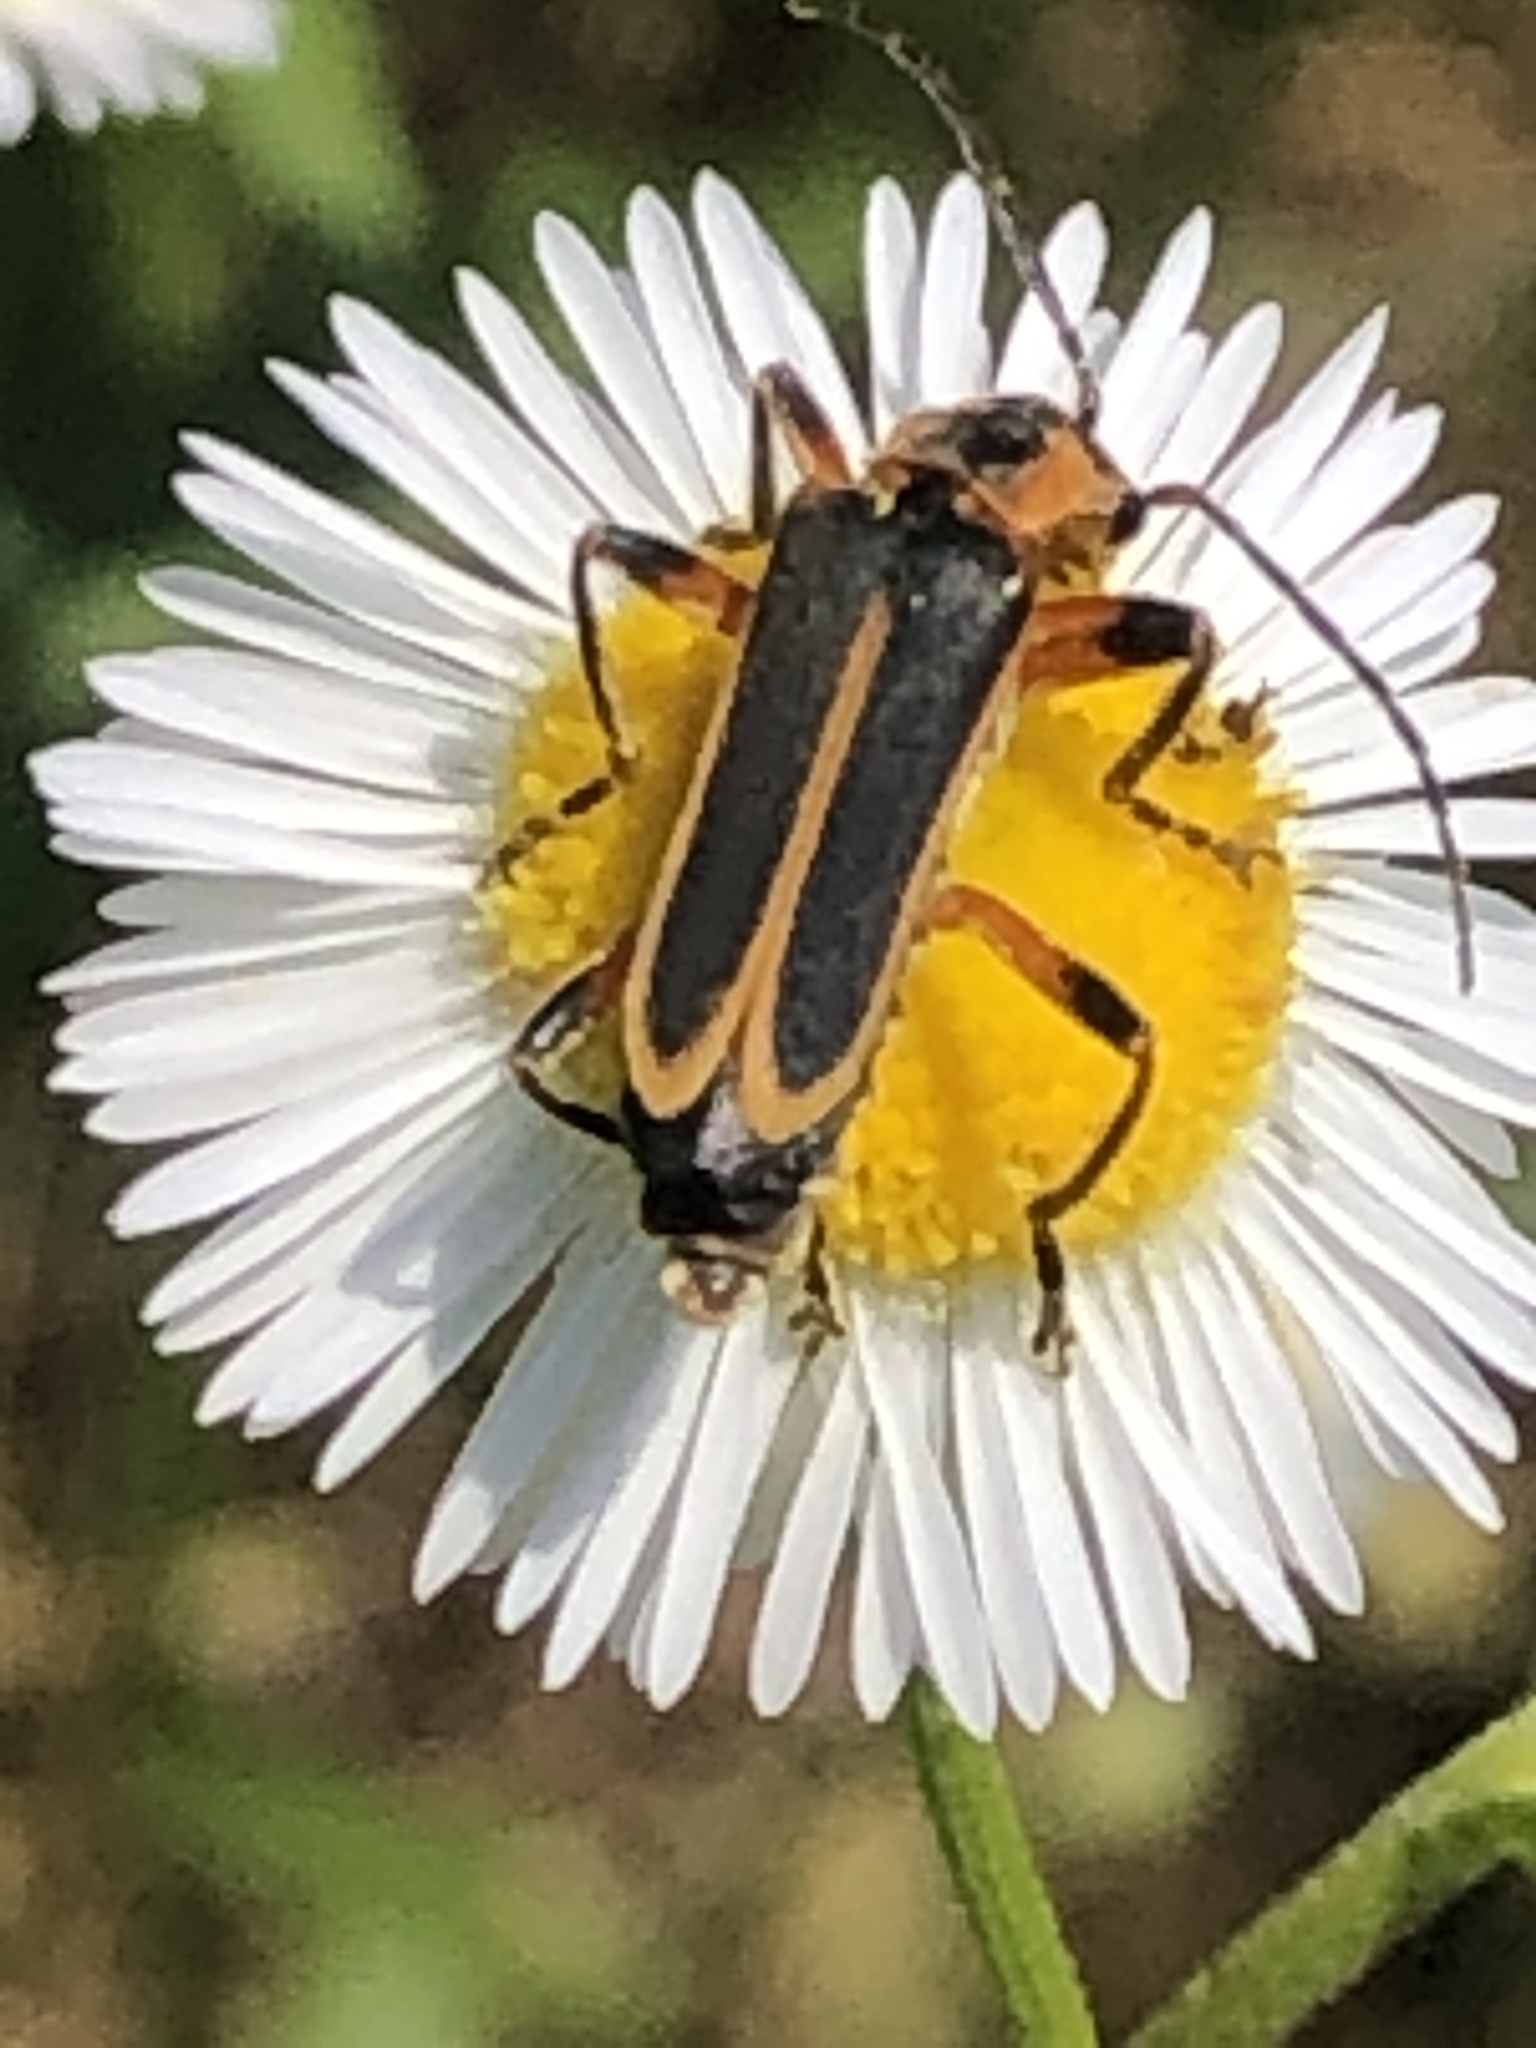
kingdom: Animalia
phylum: Arthropoda
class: Insecta
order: Coleoptera
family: Cantharidae
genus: Chauliognathus
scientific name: Chauliognathus marginatus
